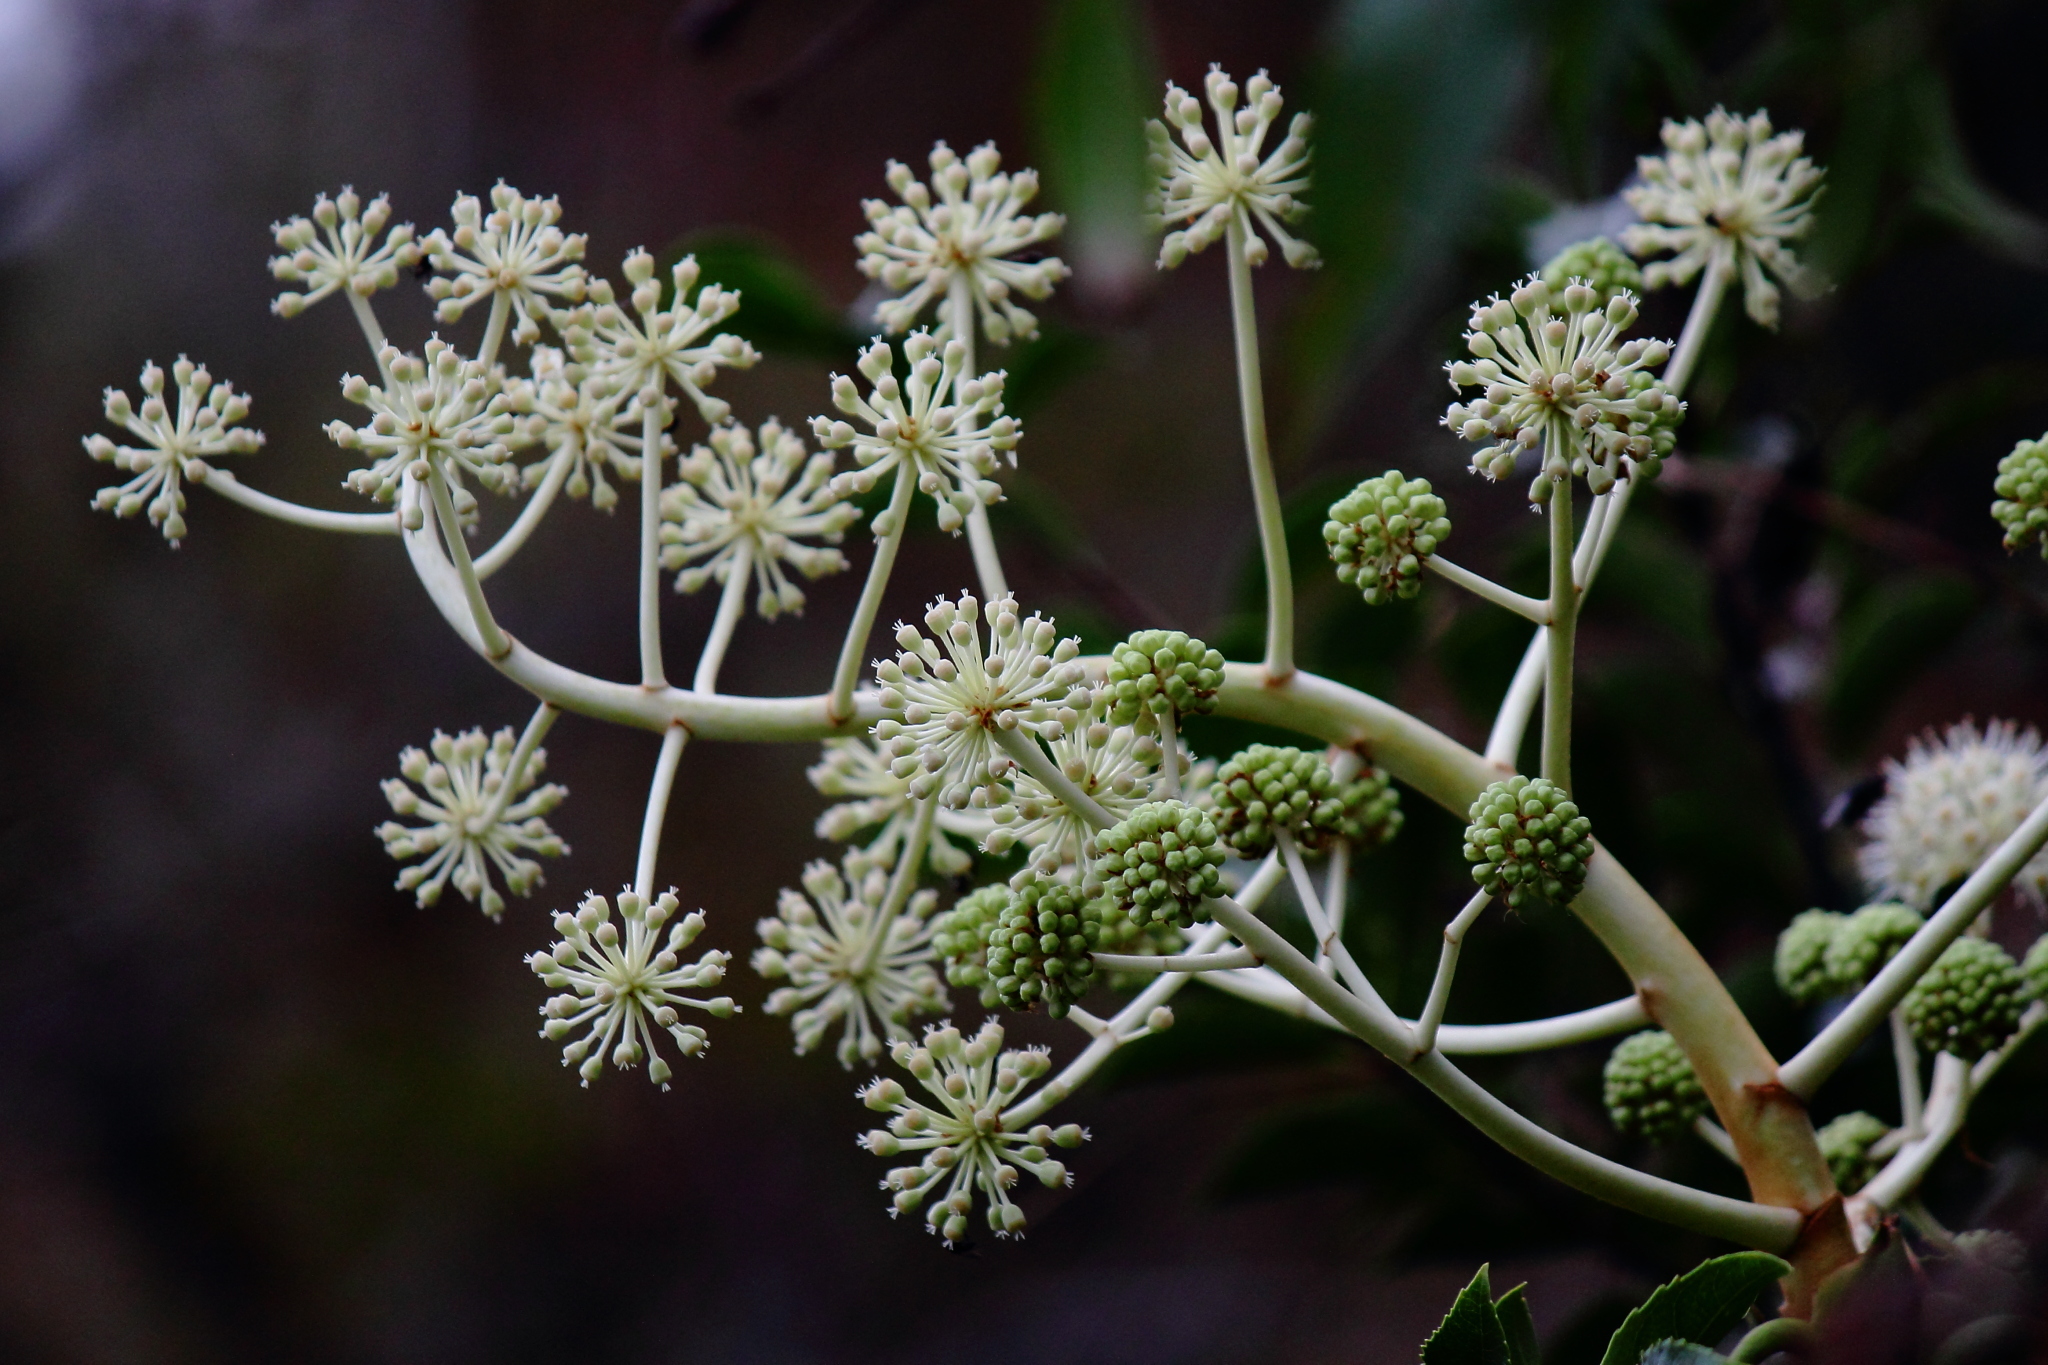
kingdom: Plantae
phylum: Tracheophyta
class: Magnoliopsida
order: Apiales
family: Araliaceae
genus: Fatsia
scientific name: Fatsia japonica
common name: Fatsia
